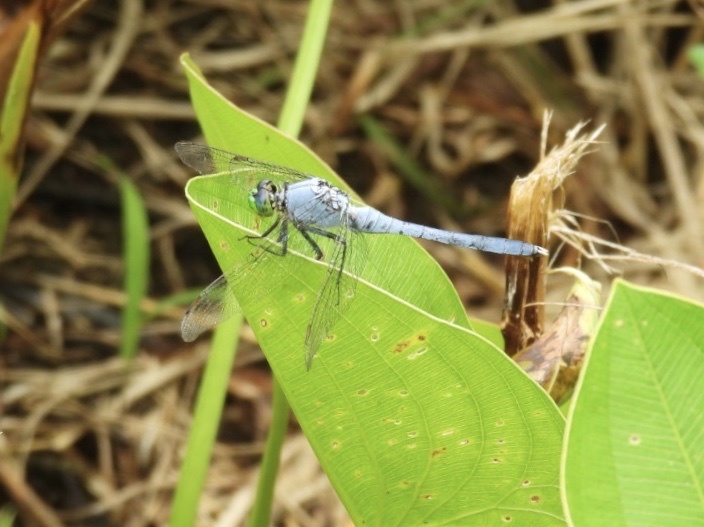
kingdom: Animalia
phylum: Arthropoda
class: Insecta
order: Odonata
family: Libellulidae
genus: Erythemis
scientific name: Erythemis simplicicollis
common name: Eastern pondhawk
